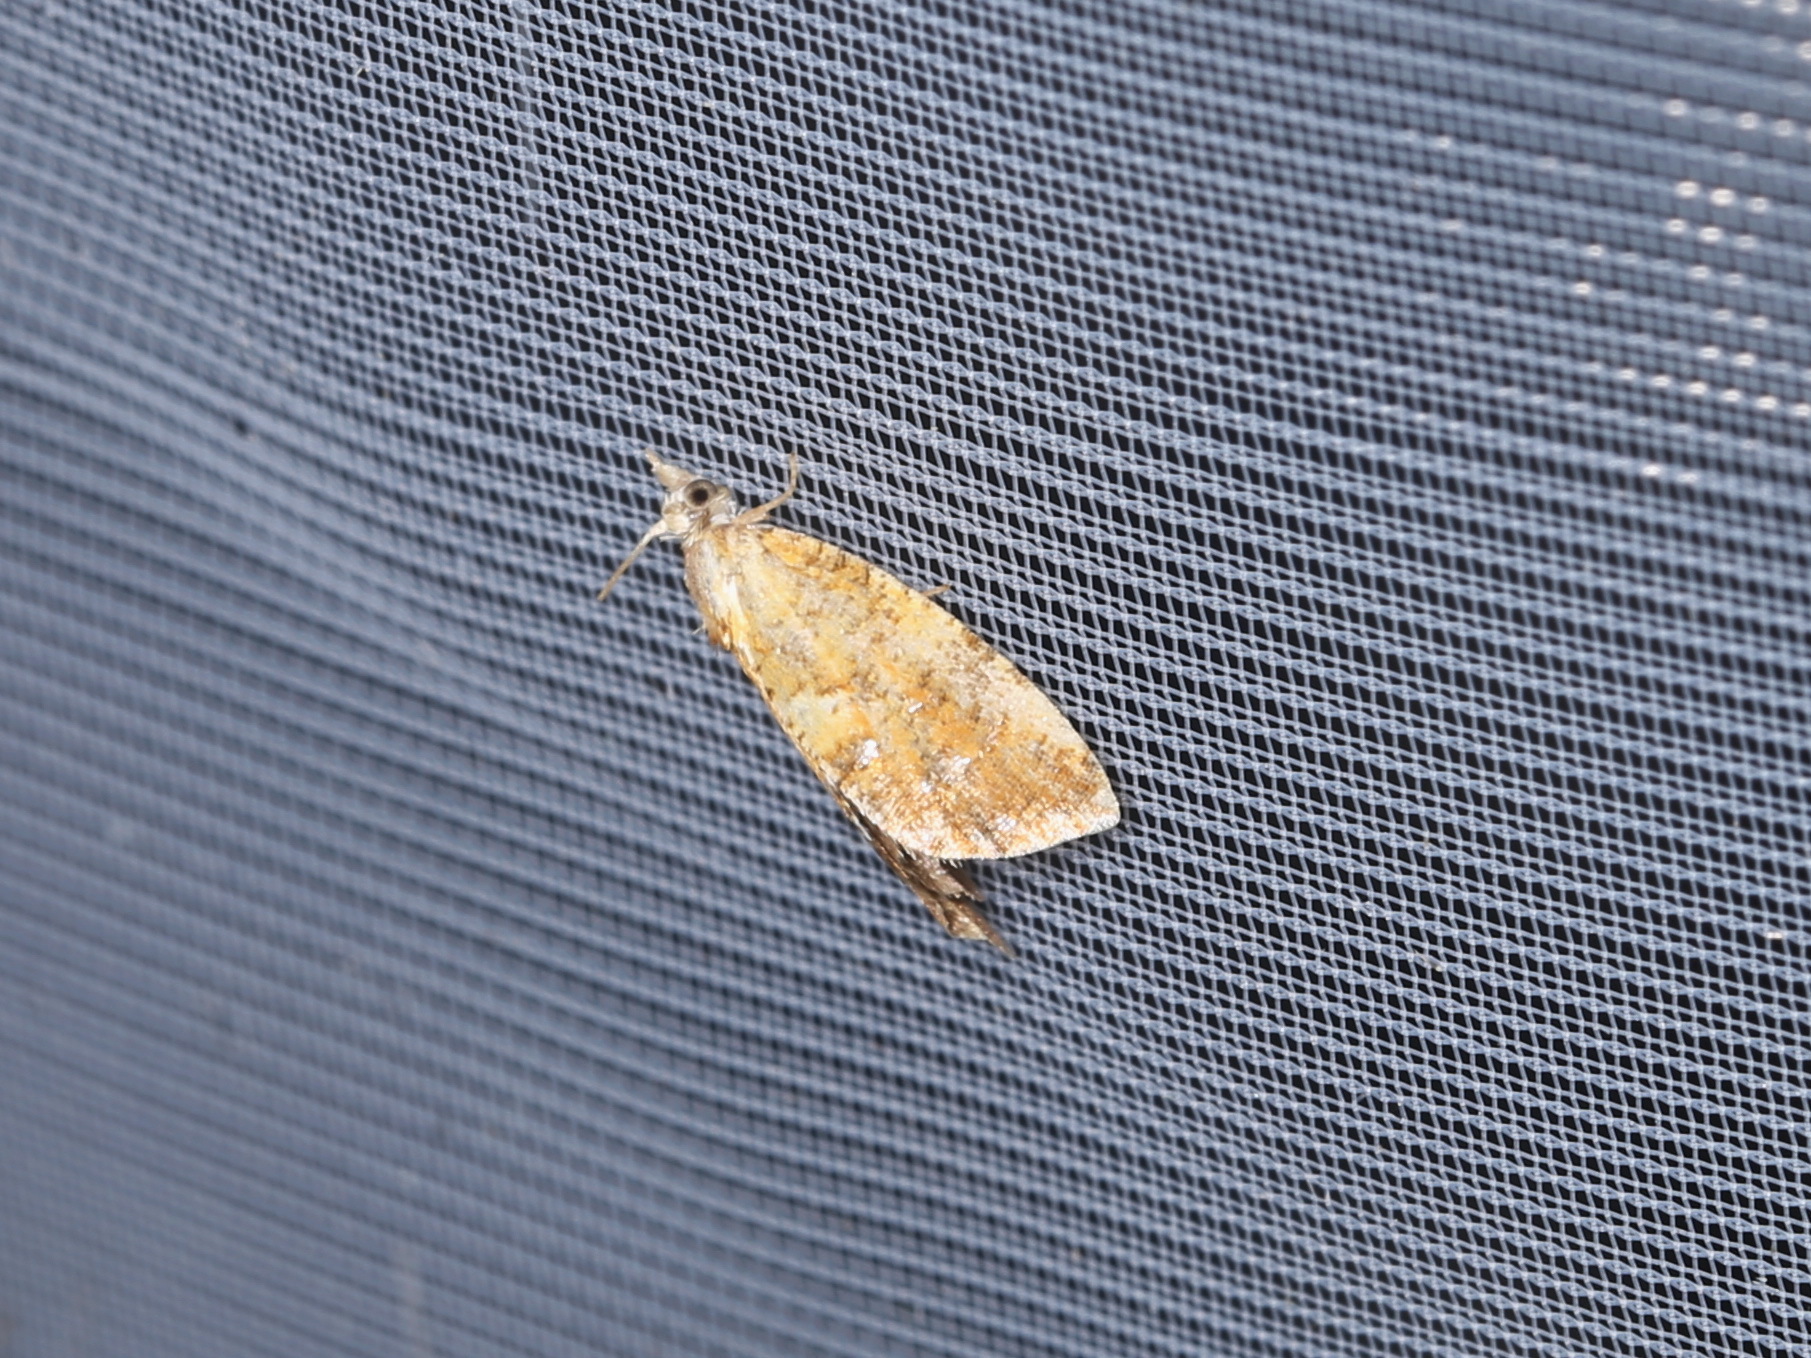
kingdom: Animalia
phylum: Arthropoda
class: Insecta
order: Lepidoptera
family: Tortricidae
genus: Pseudargyrotoza
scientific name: Pseudargyrotoza conwagana
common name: Yellow-spot twist
